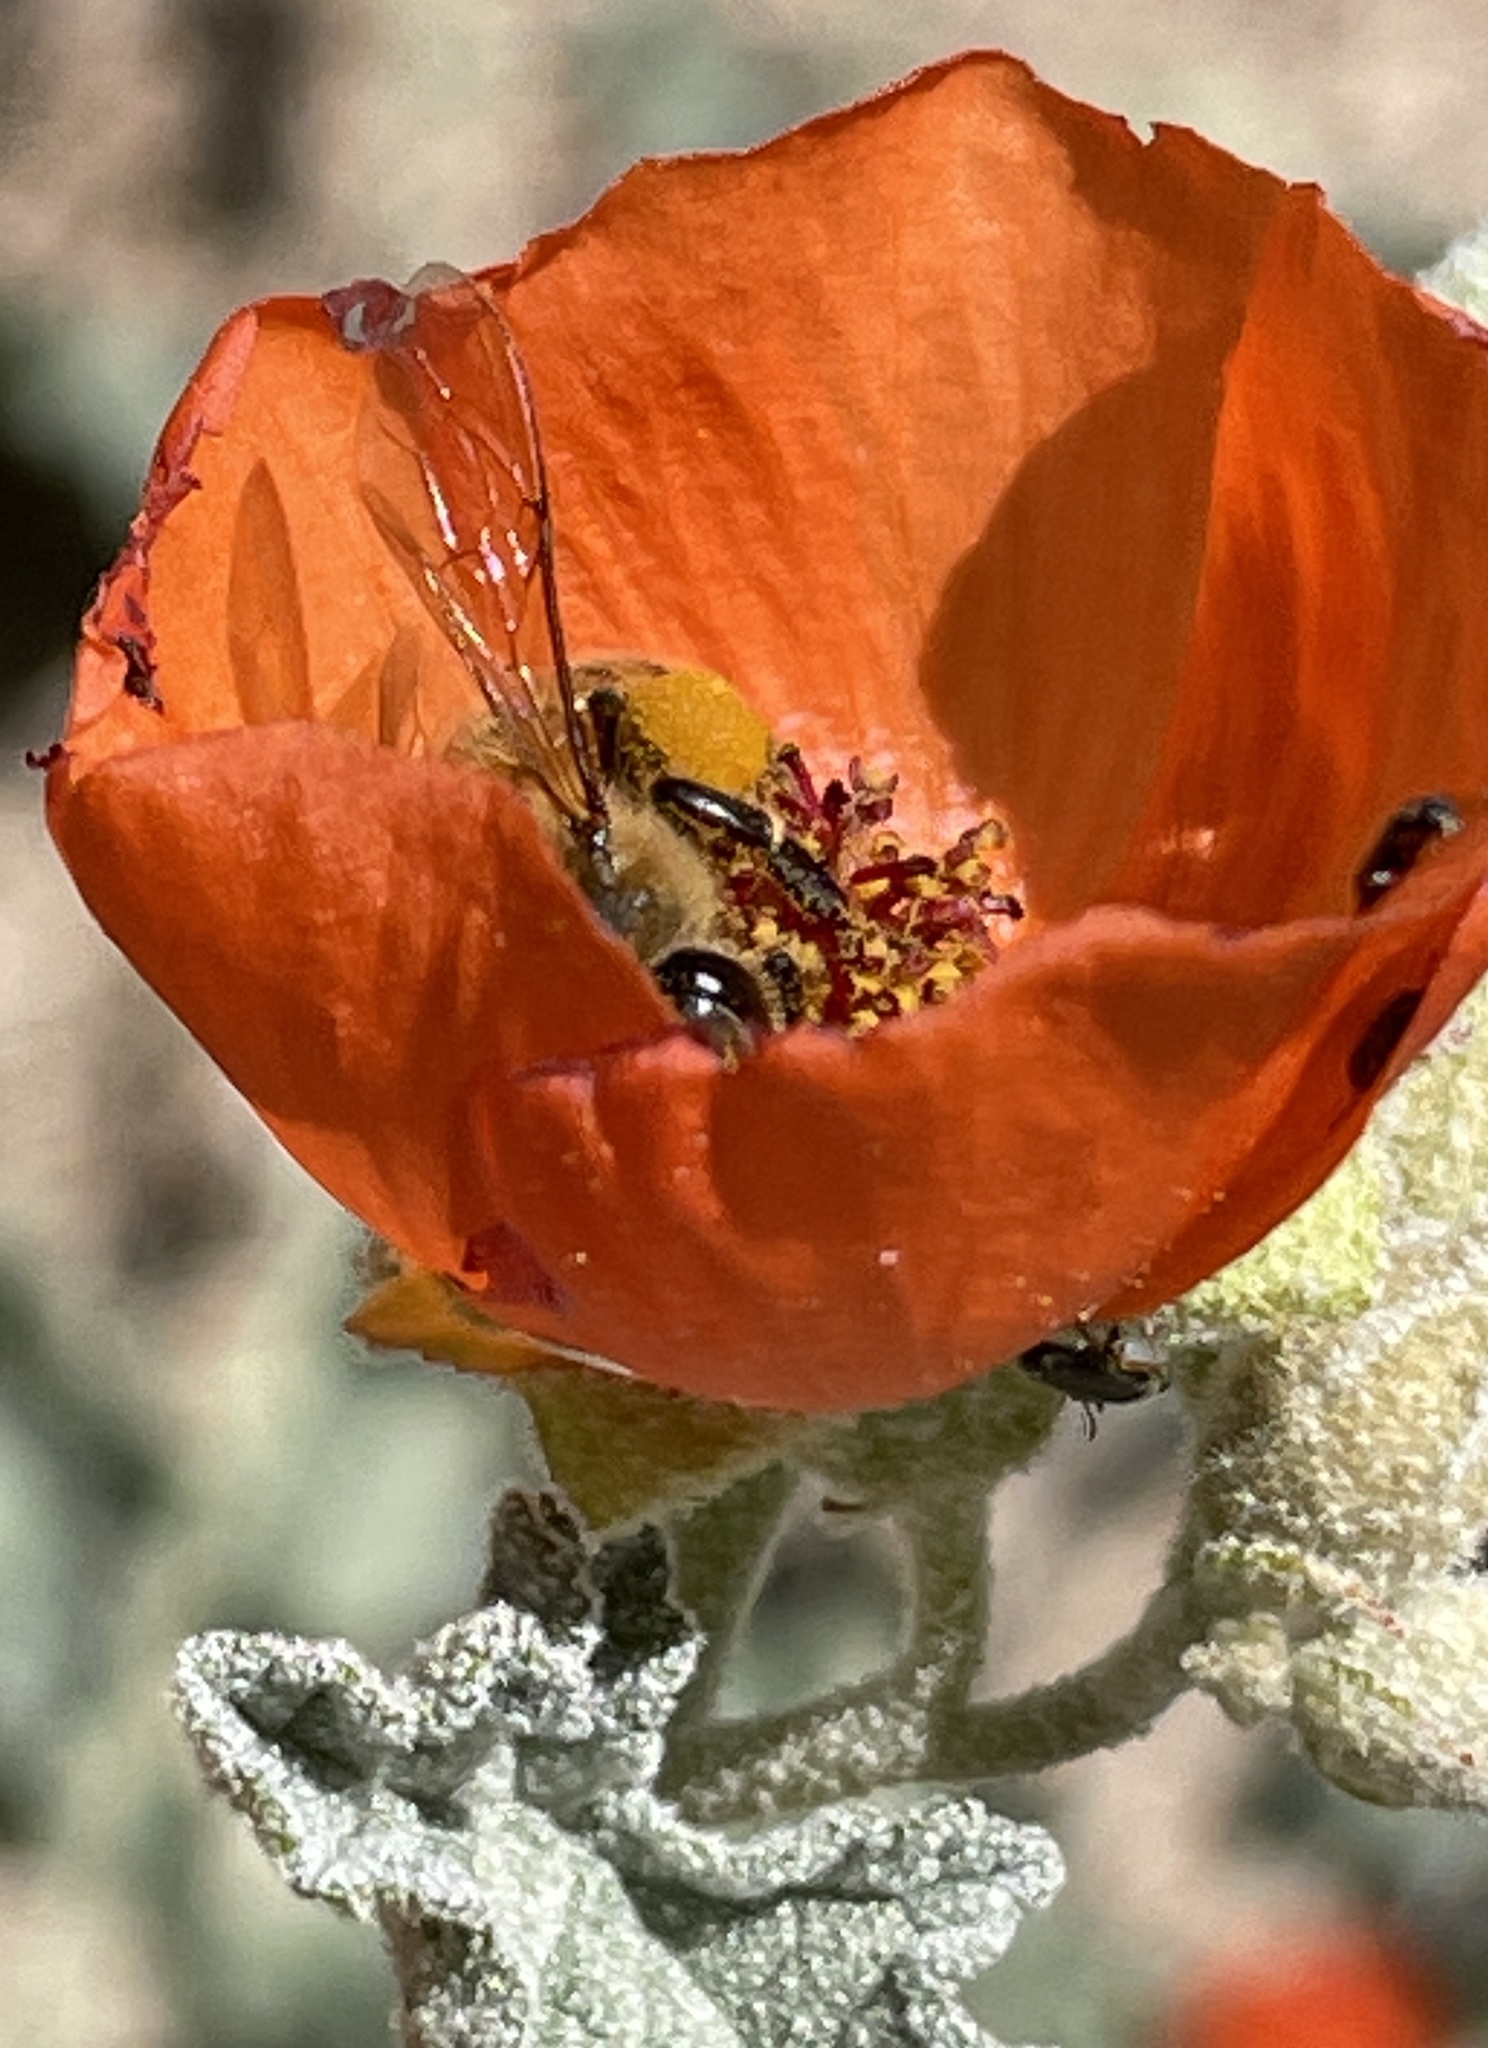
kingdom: Plantae
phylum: Tracheophyta
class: Magnoliopsida
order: Malvales
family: Malvaceae
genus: Sphaeralcea
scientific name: Sphaeralcea ambigua
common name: Apricot globe-mallow
